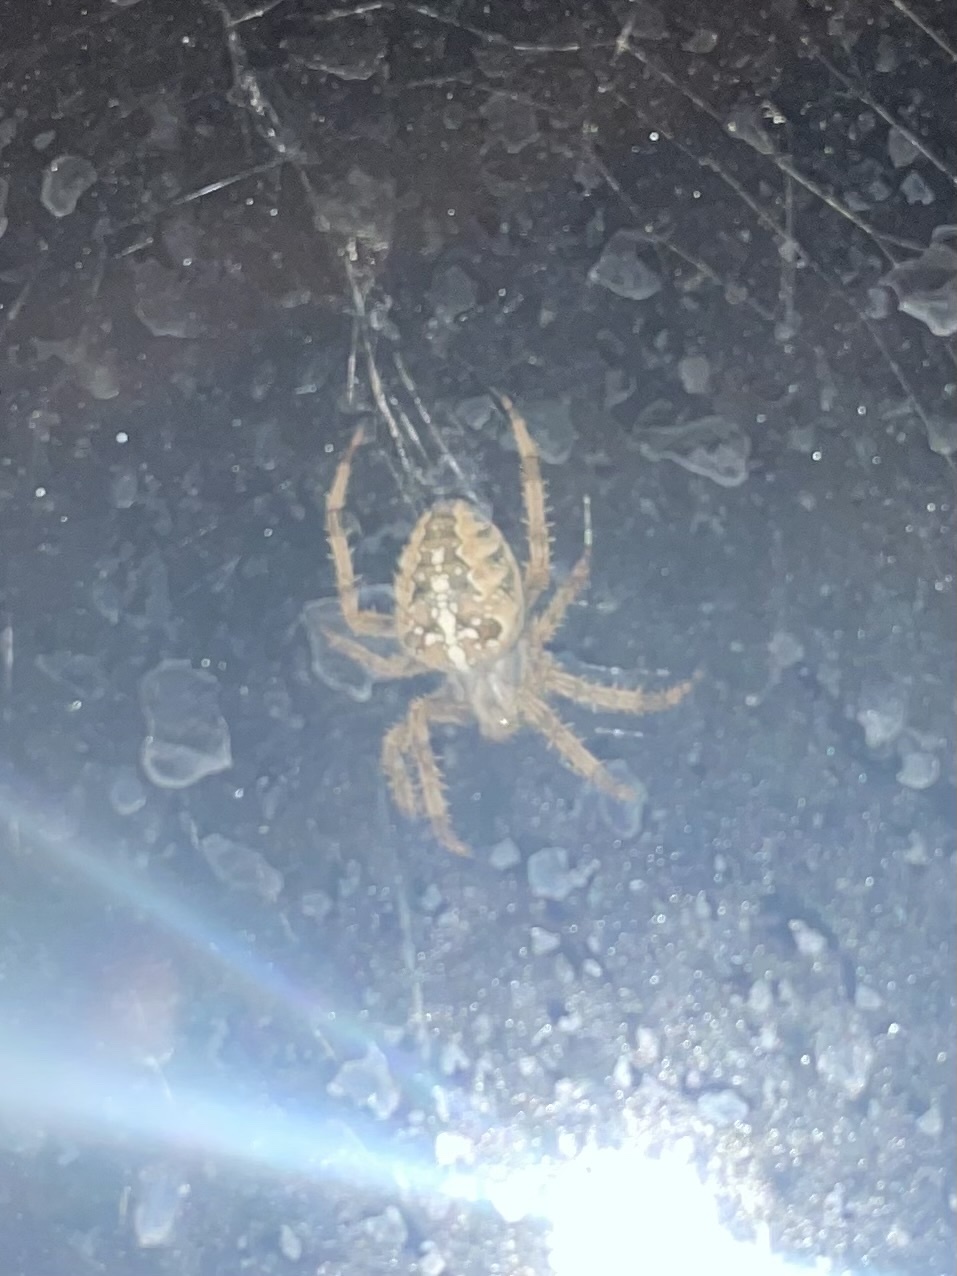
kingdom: Animalia
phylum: Arthropoda
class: Arachnida
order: Araneae
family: Araneidae
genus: Araneus
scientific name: Araneus diadematus
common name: Cross orbweaver
